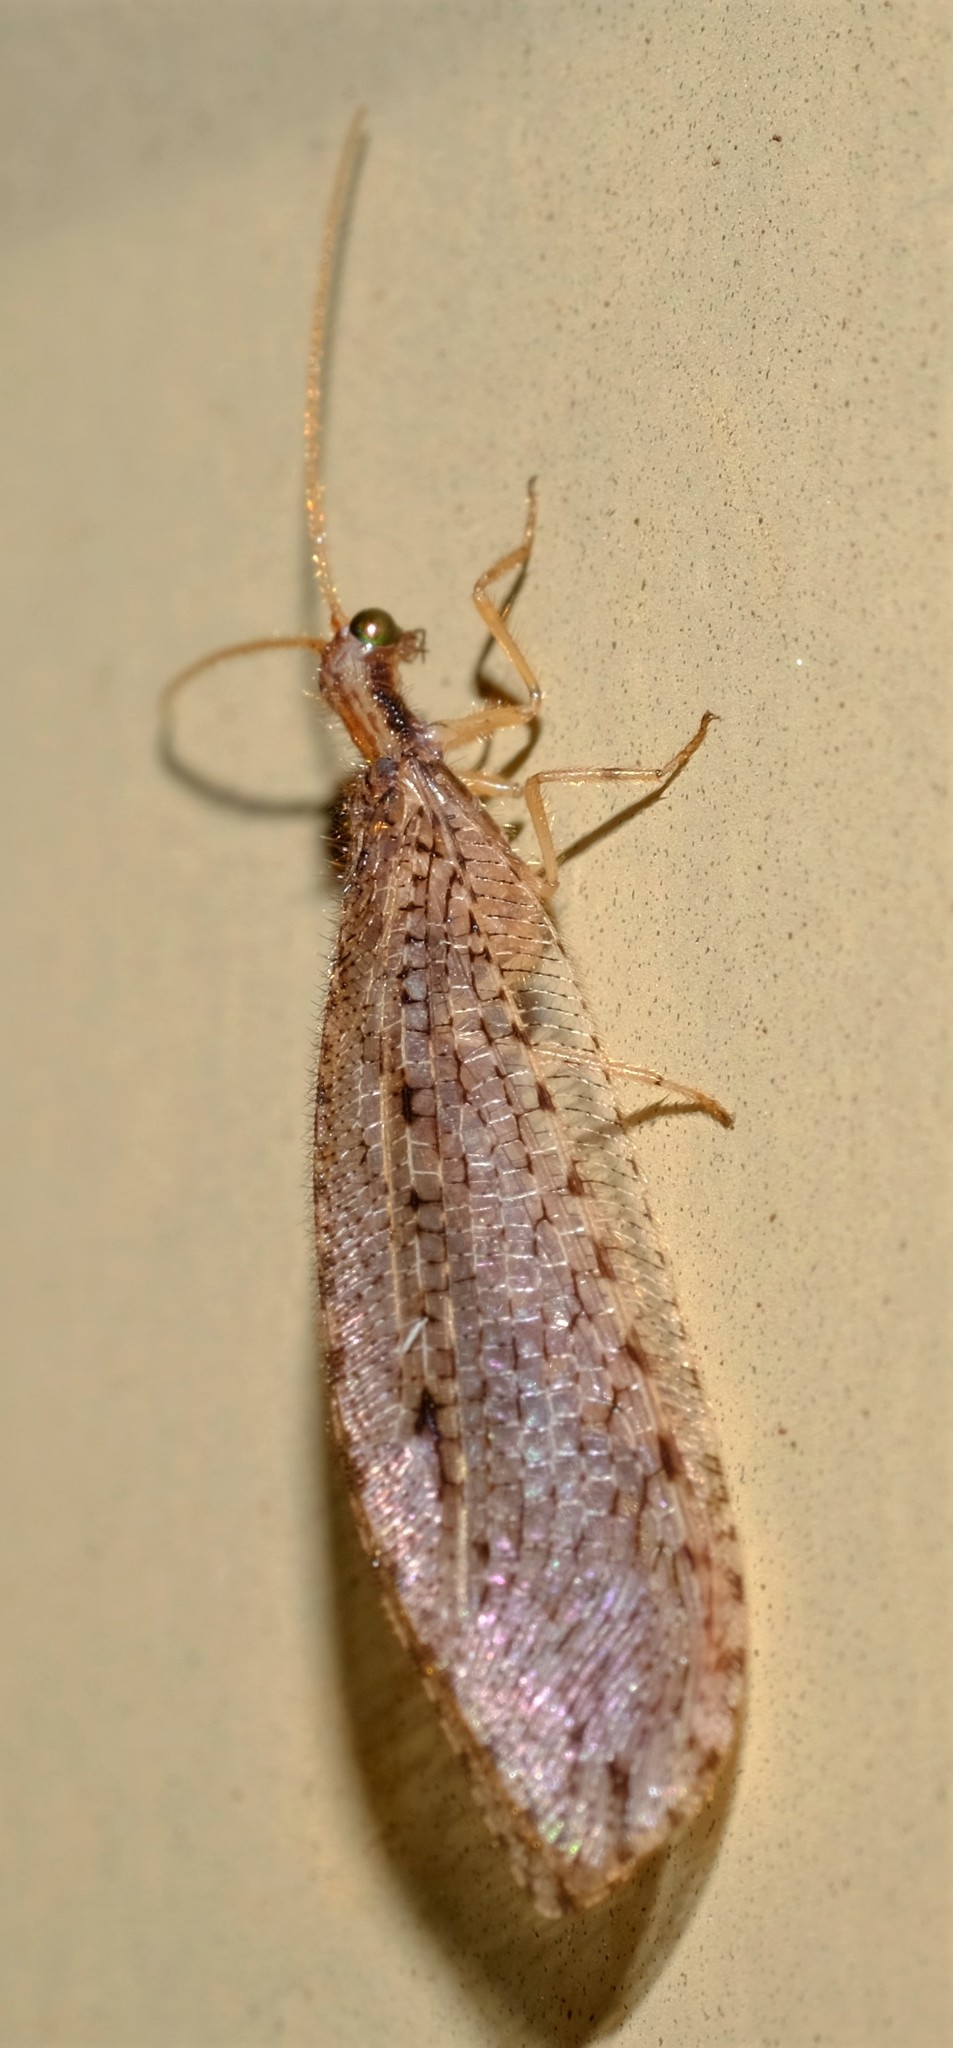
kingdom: Animalia
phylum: Arthropoda
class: Insecta
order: Neuroptera
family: Osmylidae
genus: Stenosmylus
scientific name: Stenosmylus tenuis
